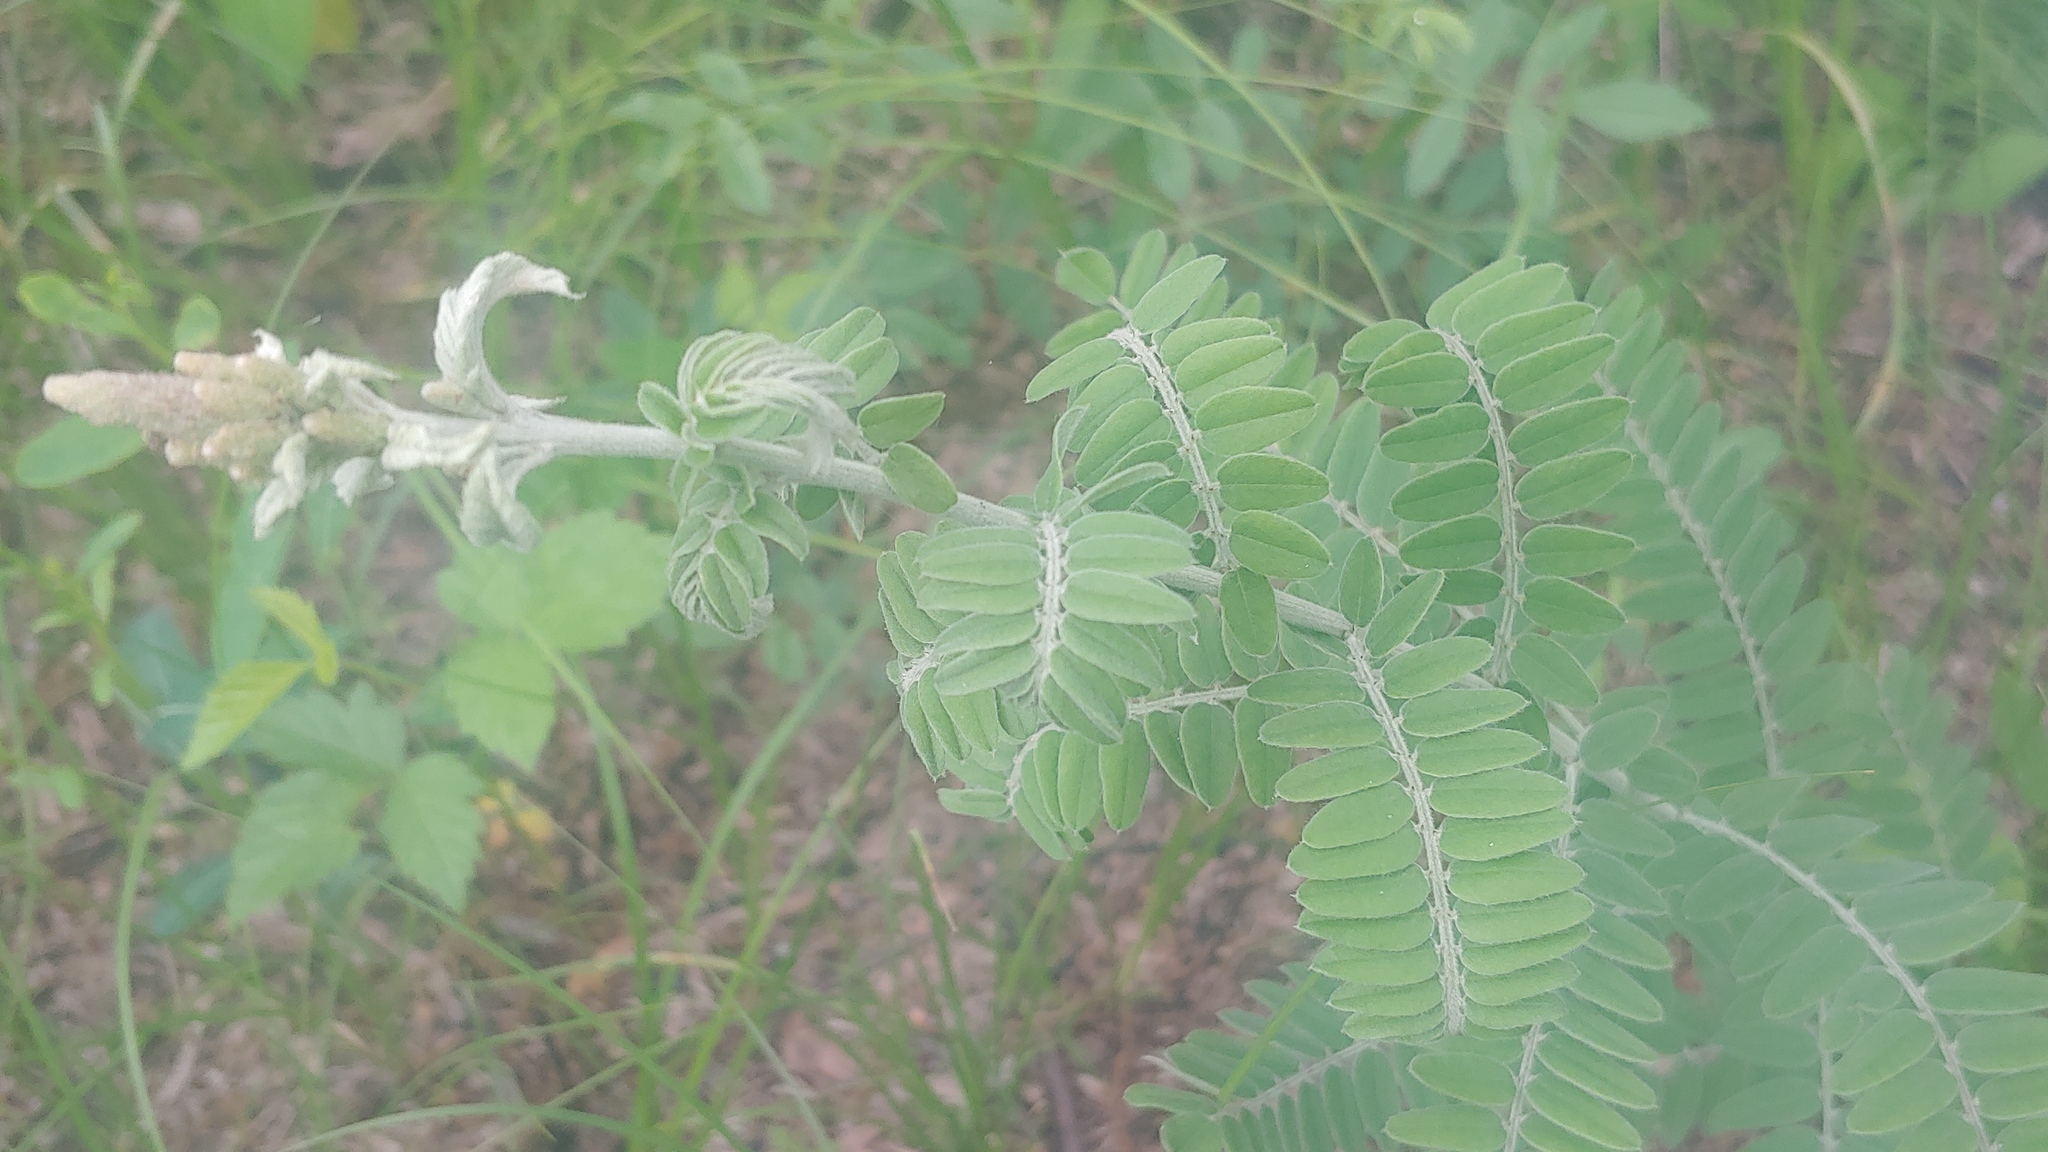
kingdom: Plantae
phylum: Tracheophyta
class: Magnoliopsida
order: Fabales
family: Fabaceae
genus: Amorpha
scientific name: Amorpha canescens
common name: Leadplant
